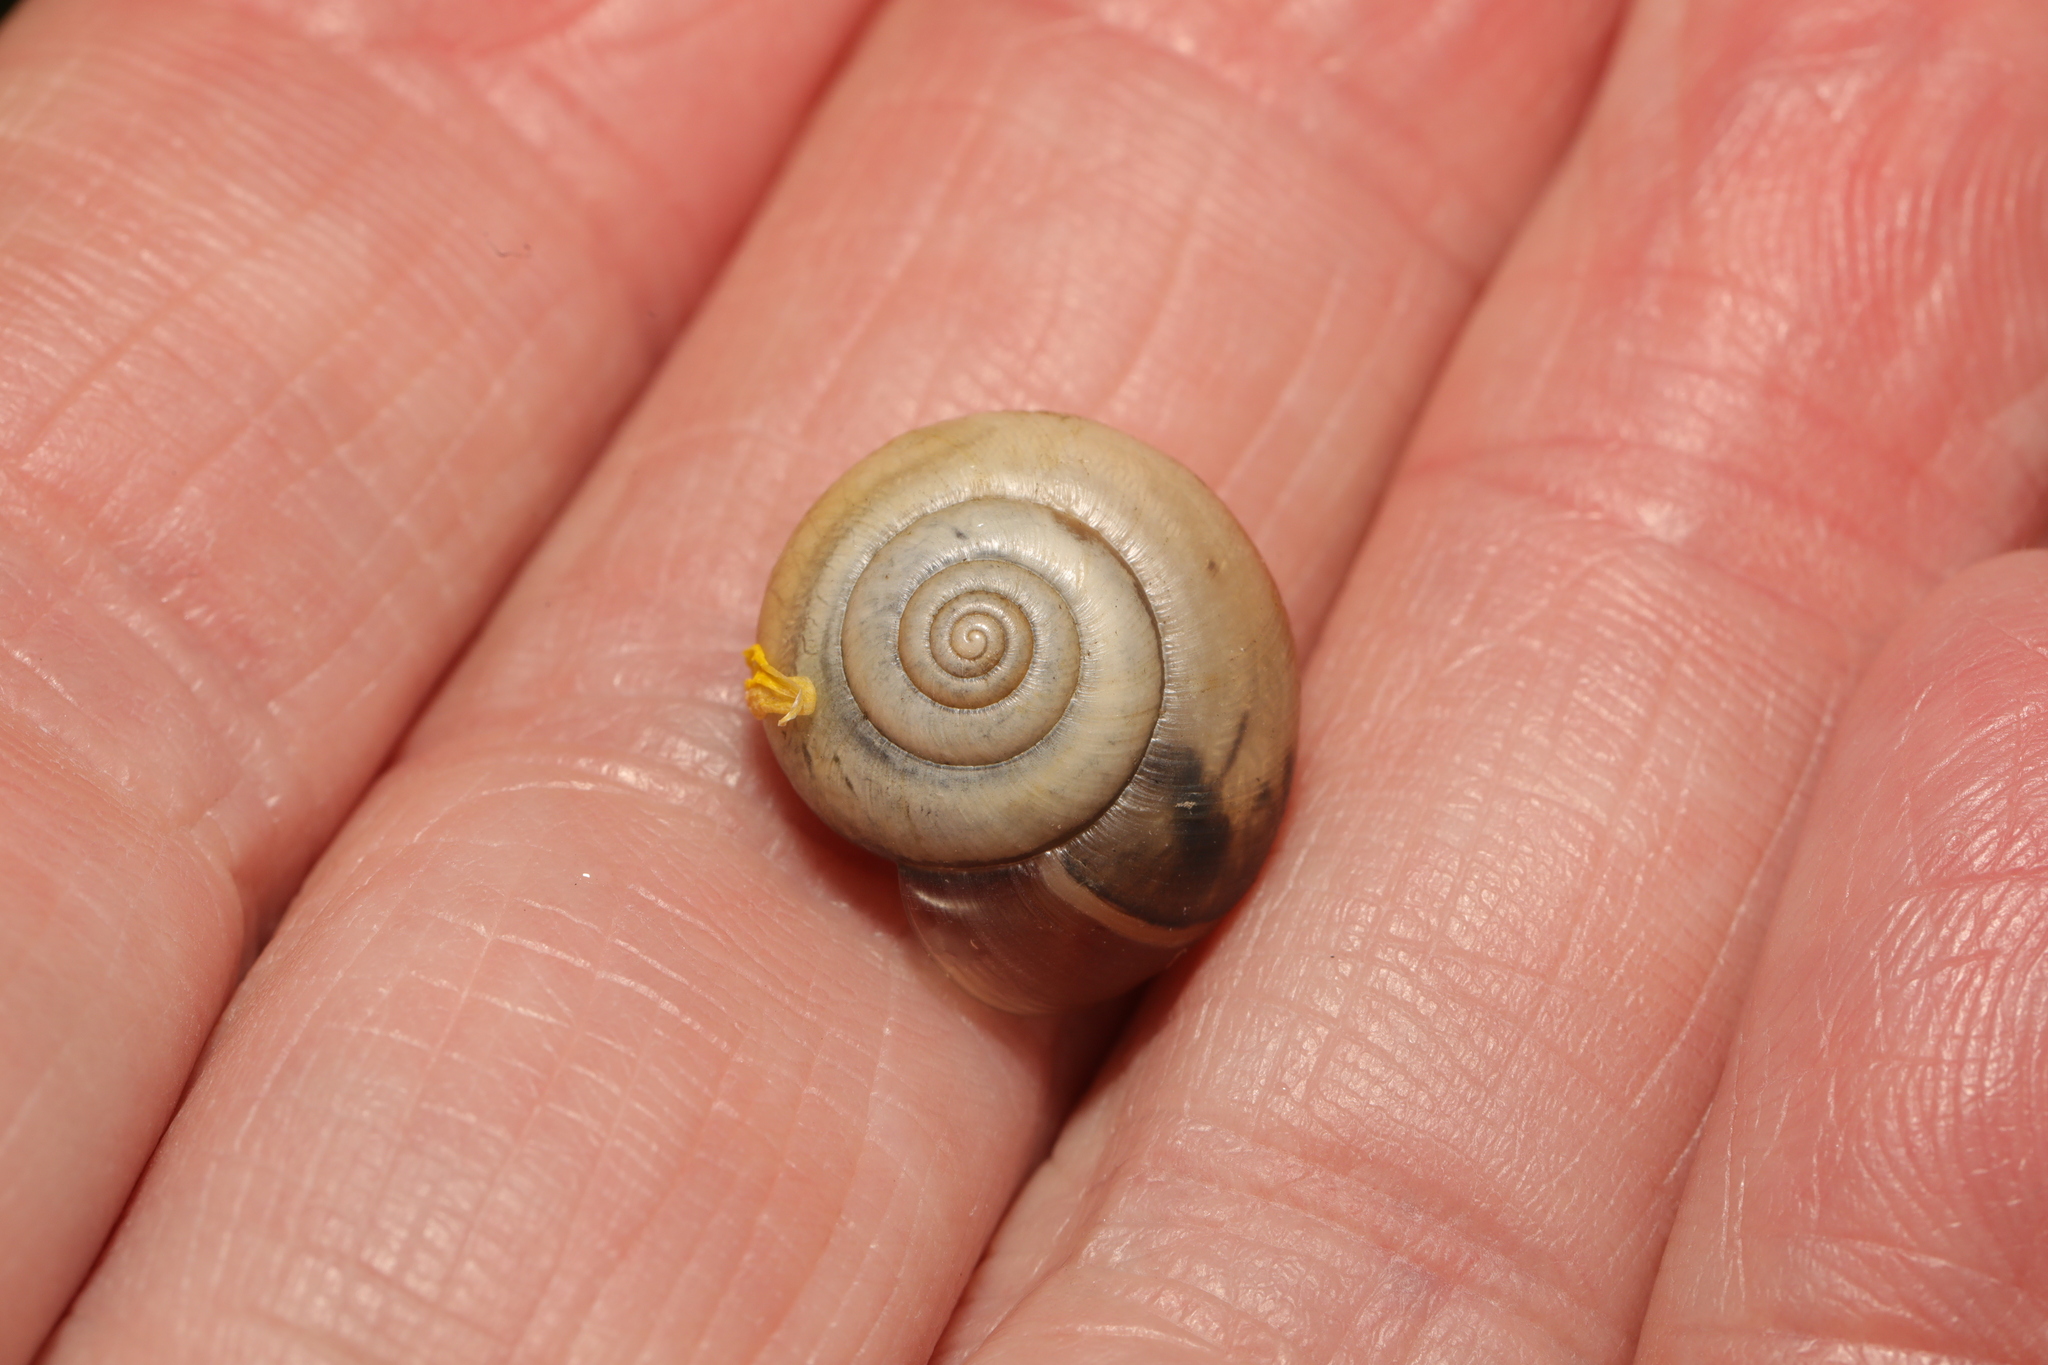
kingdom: Animalia
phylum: Mollusca
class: Gastropoda
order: Stylommatophora
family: Hygromiidae
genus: Monacha
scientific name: Monacha cantiana
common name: Kentish snail
